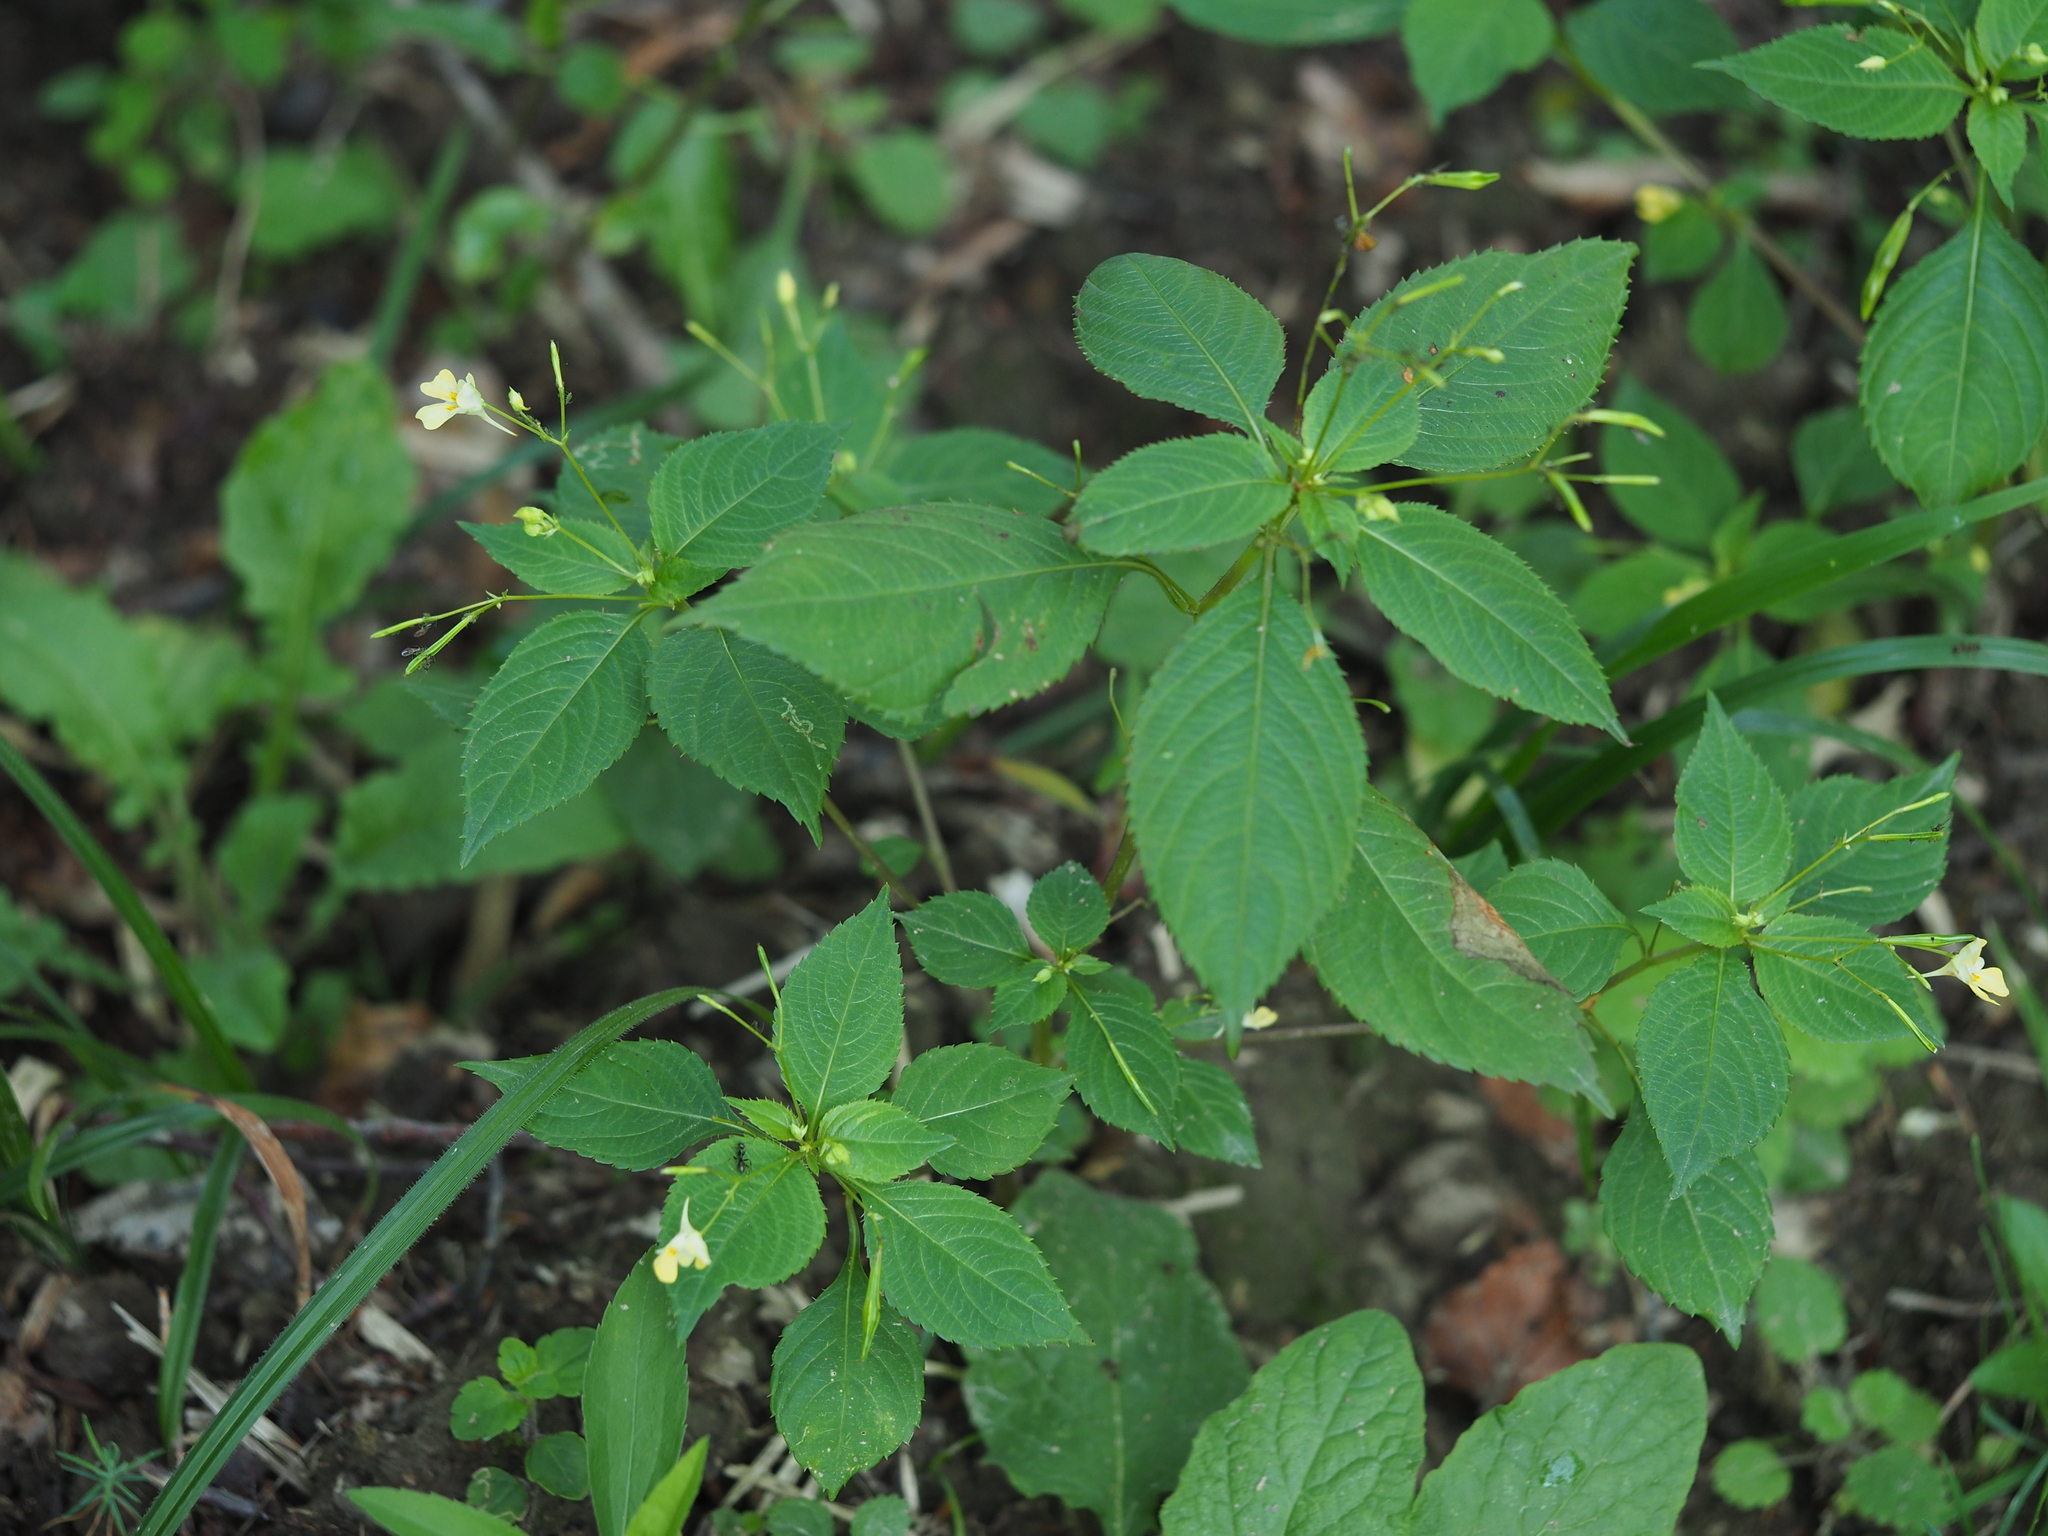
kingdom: Plantae
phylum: Tracheophyta
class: Magnoliopsida
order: Ericales
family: Balsaminaceae
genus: Impatiens
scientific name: Impatiens parviflora
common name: Small balsam
